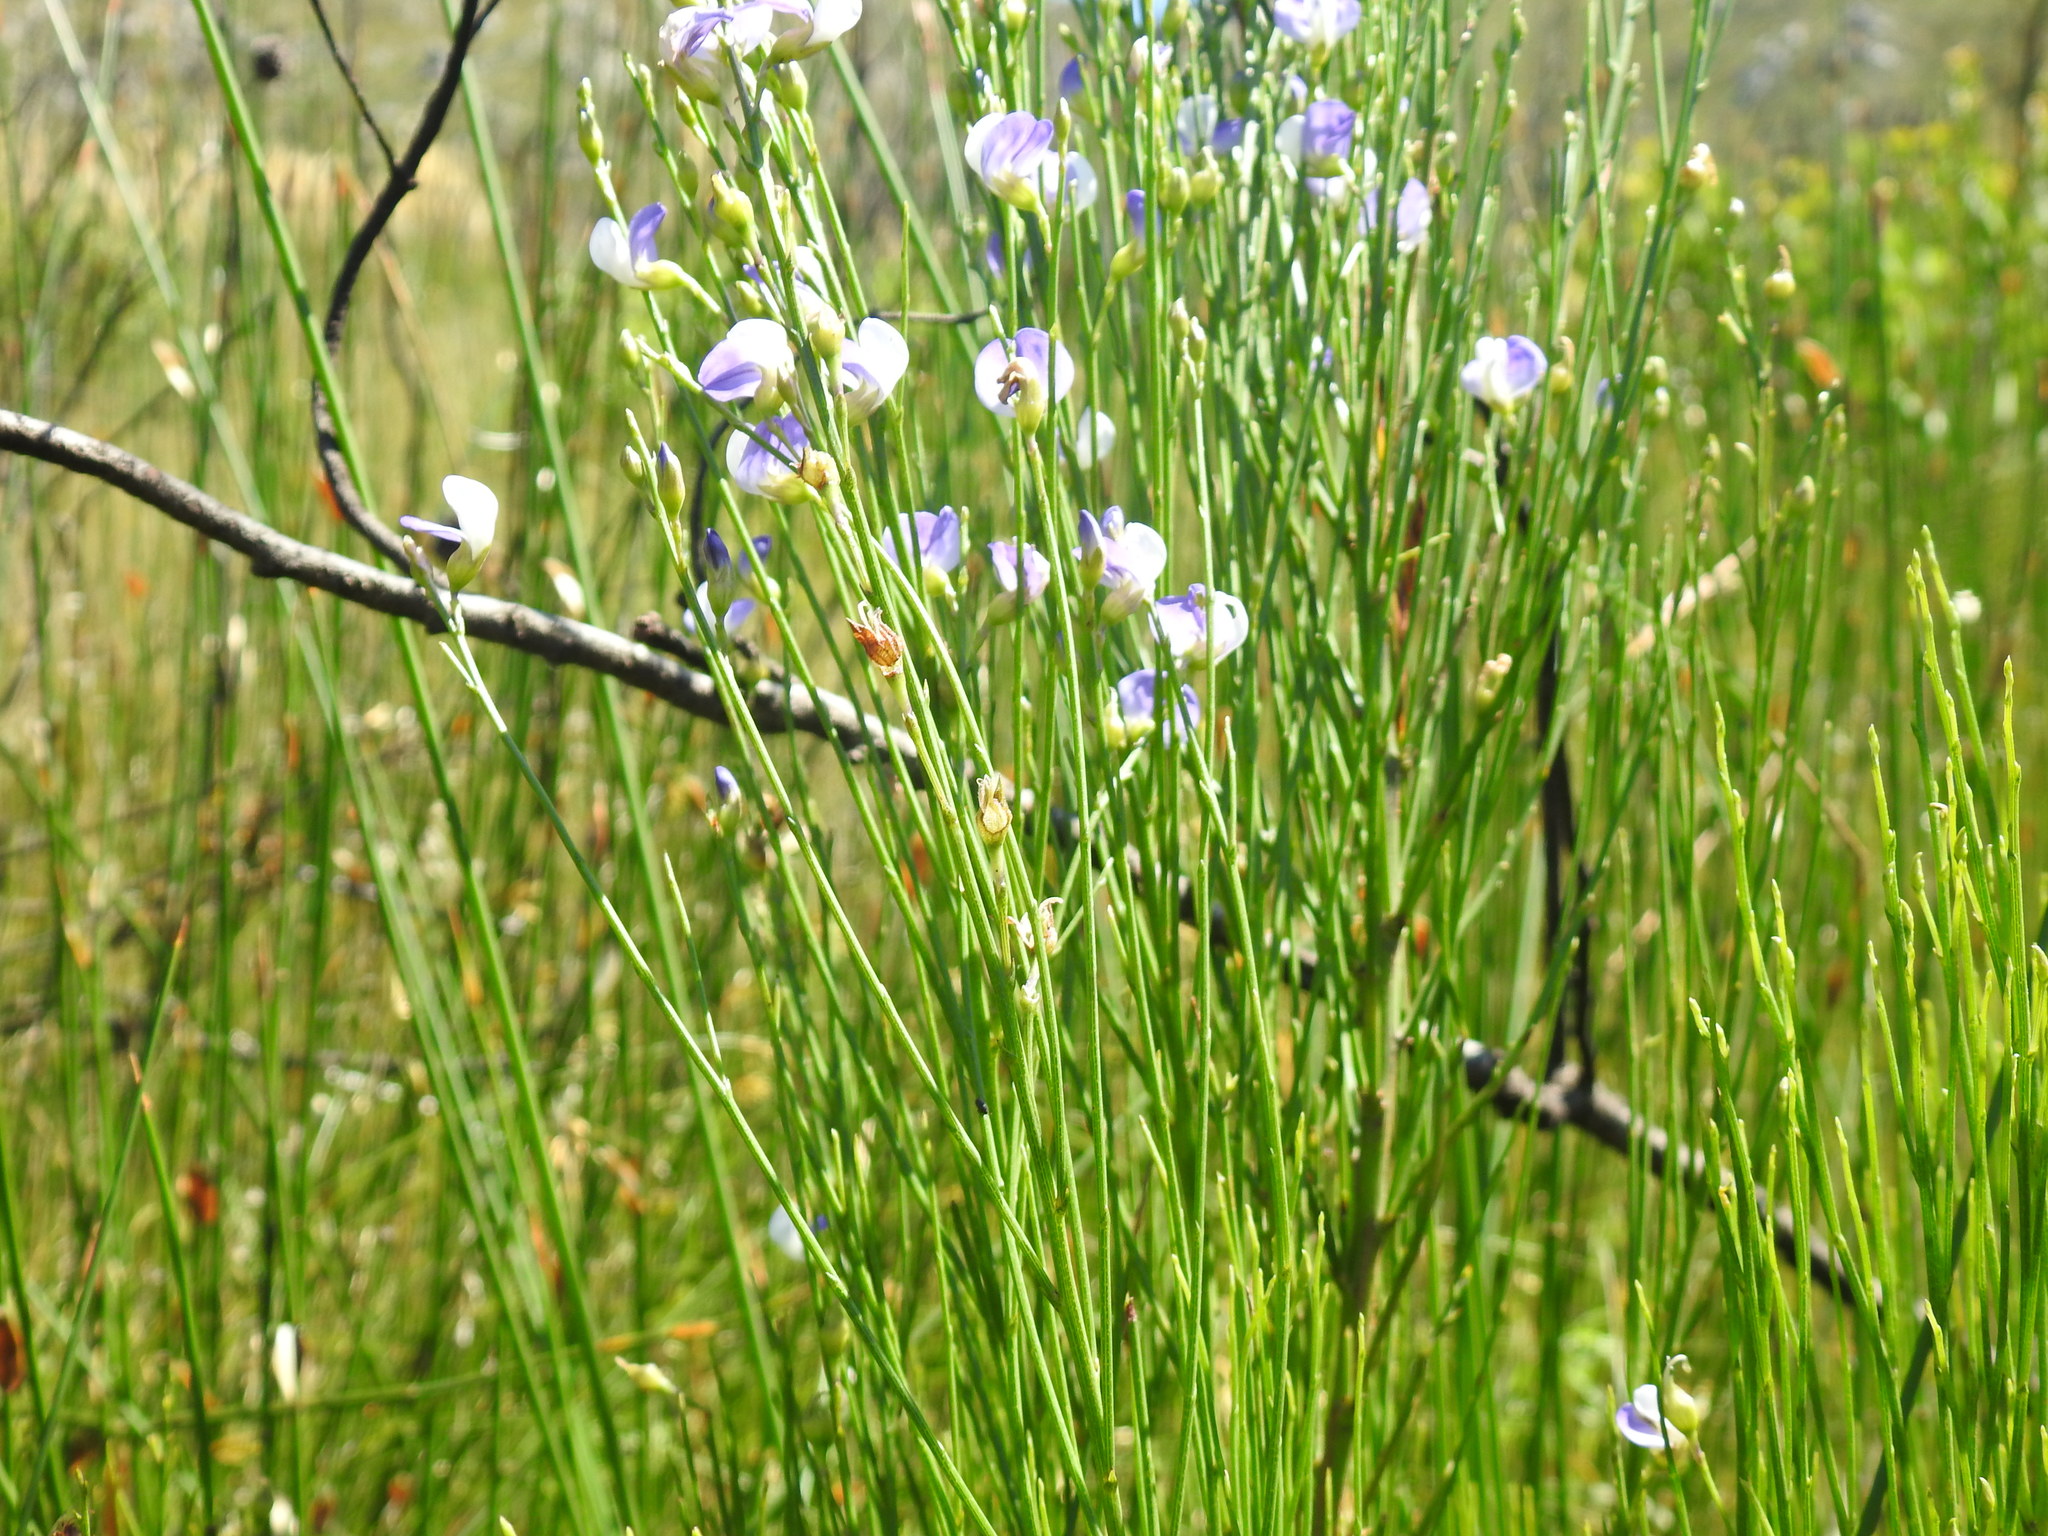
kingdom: Plantae
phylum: Tracheophyta
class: Magnoliopsida
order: Fabales
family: Fabaceae
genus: Psoralea
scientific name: Psoralea usitata
